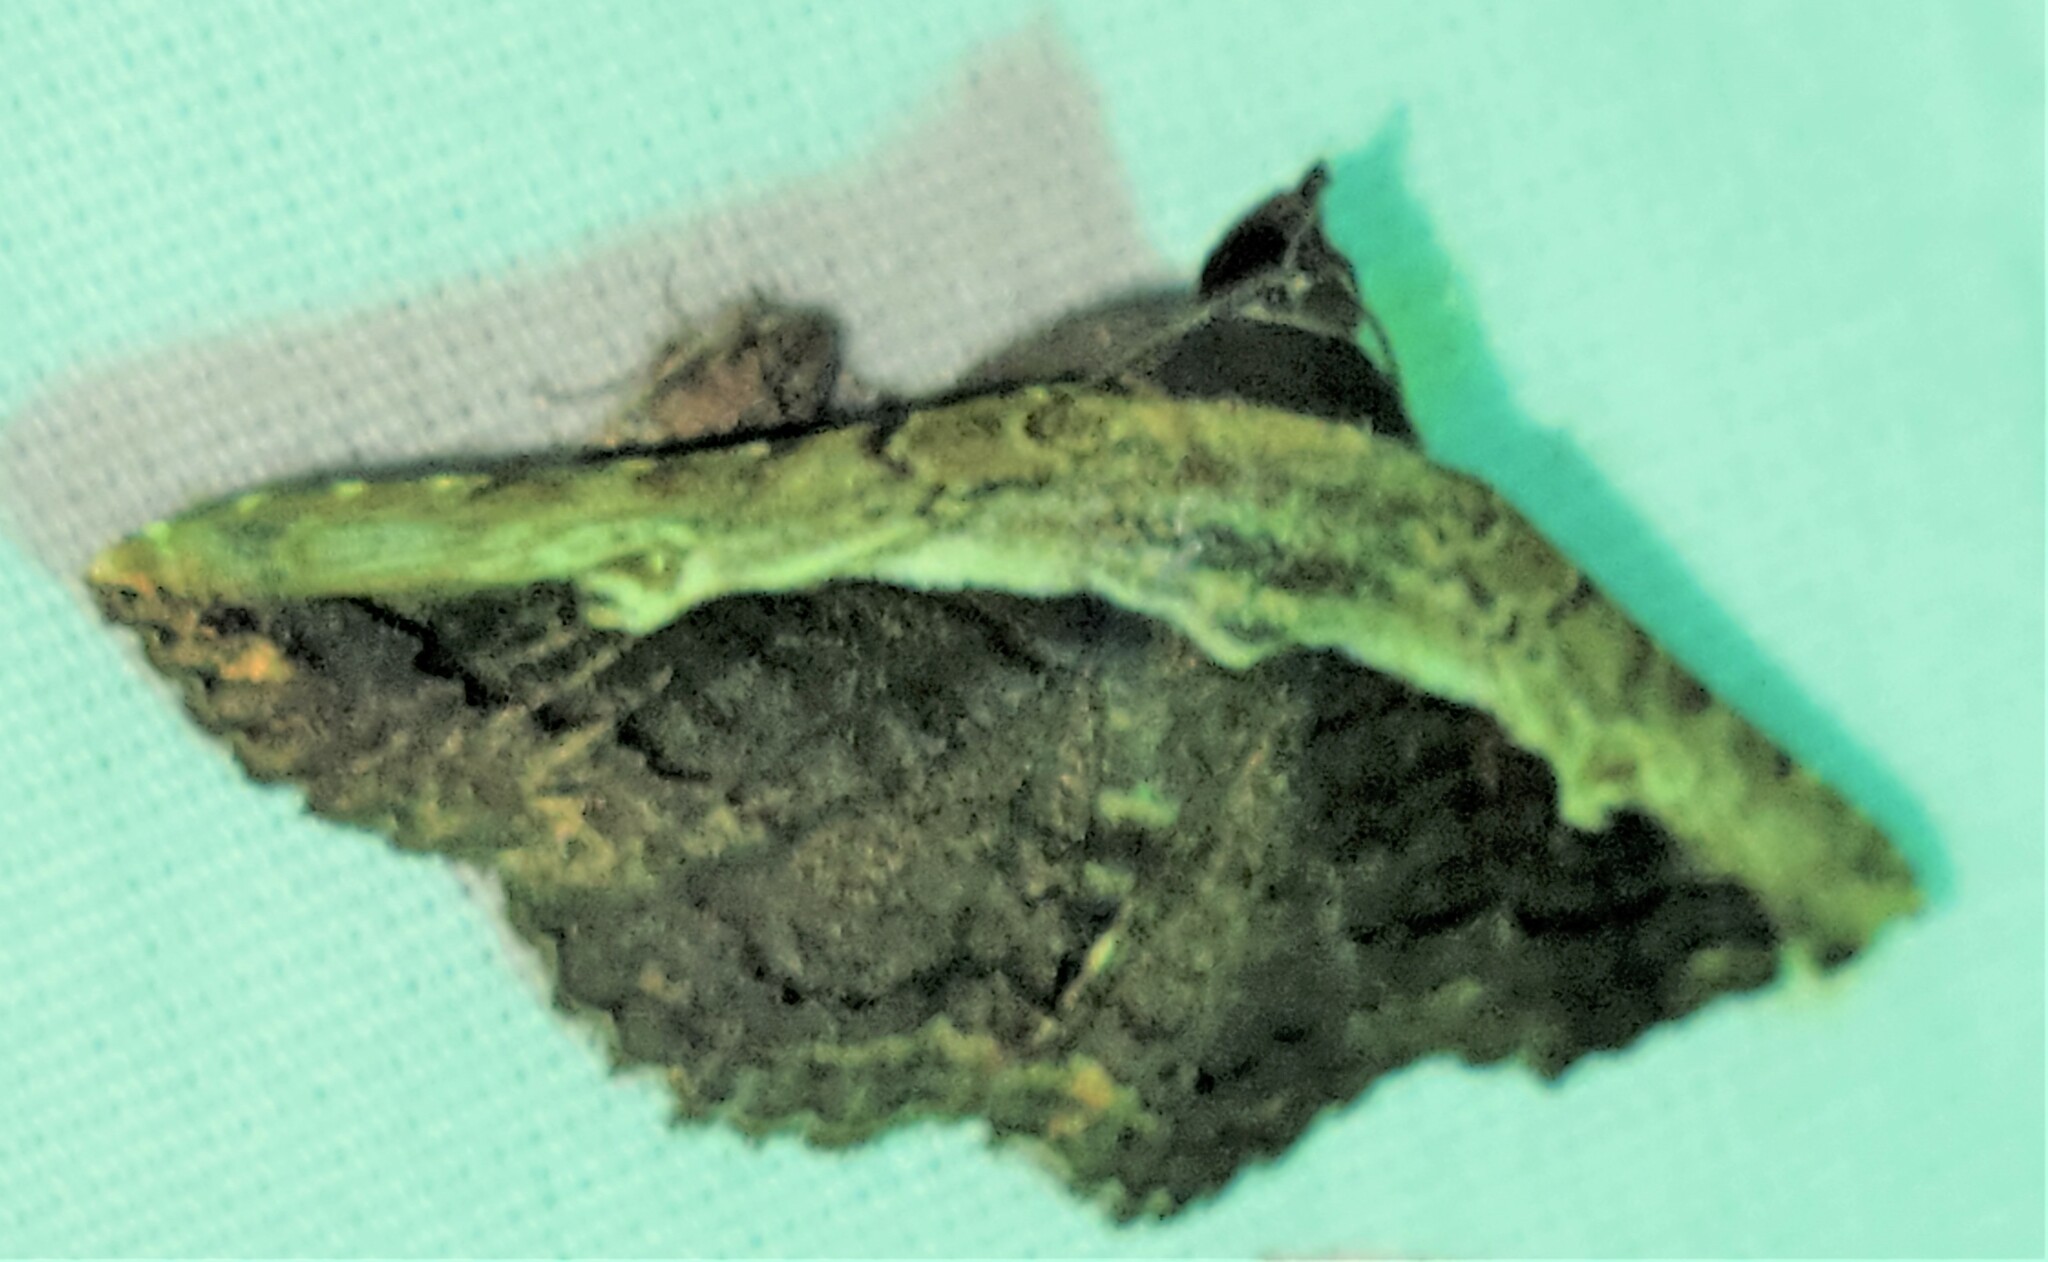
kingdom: Animalia
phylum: Arthropoda
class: Insecta
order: Lepidoptera
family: Erebidae
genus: Selenisa
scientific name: Selenisa sueroides
